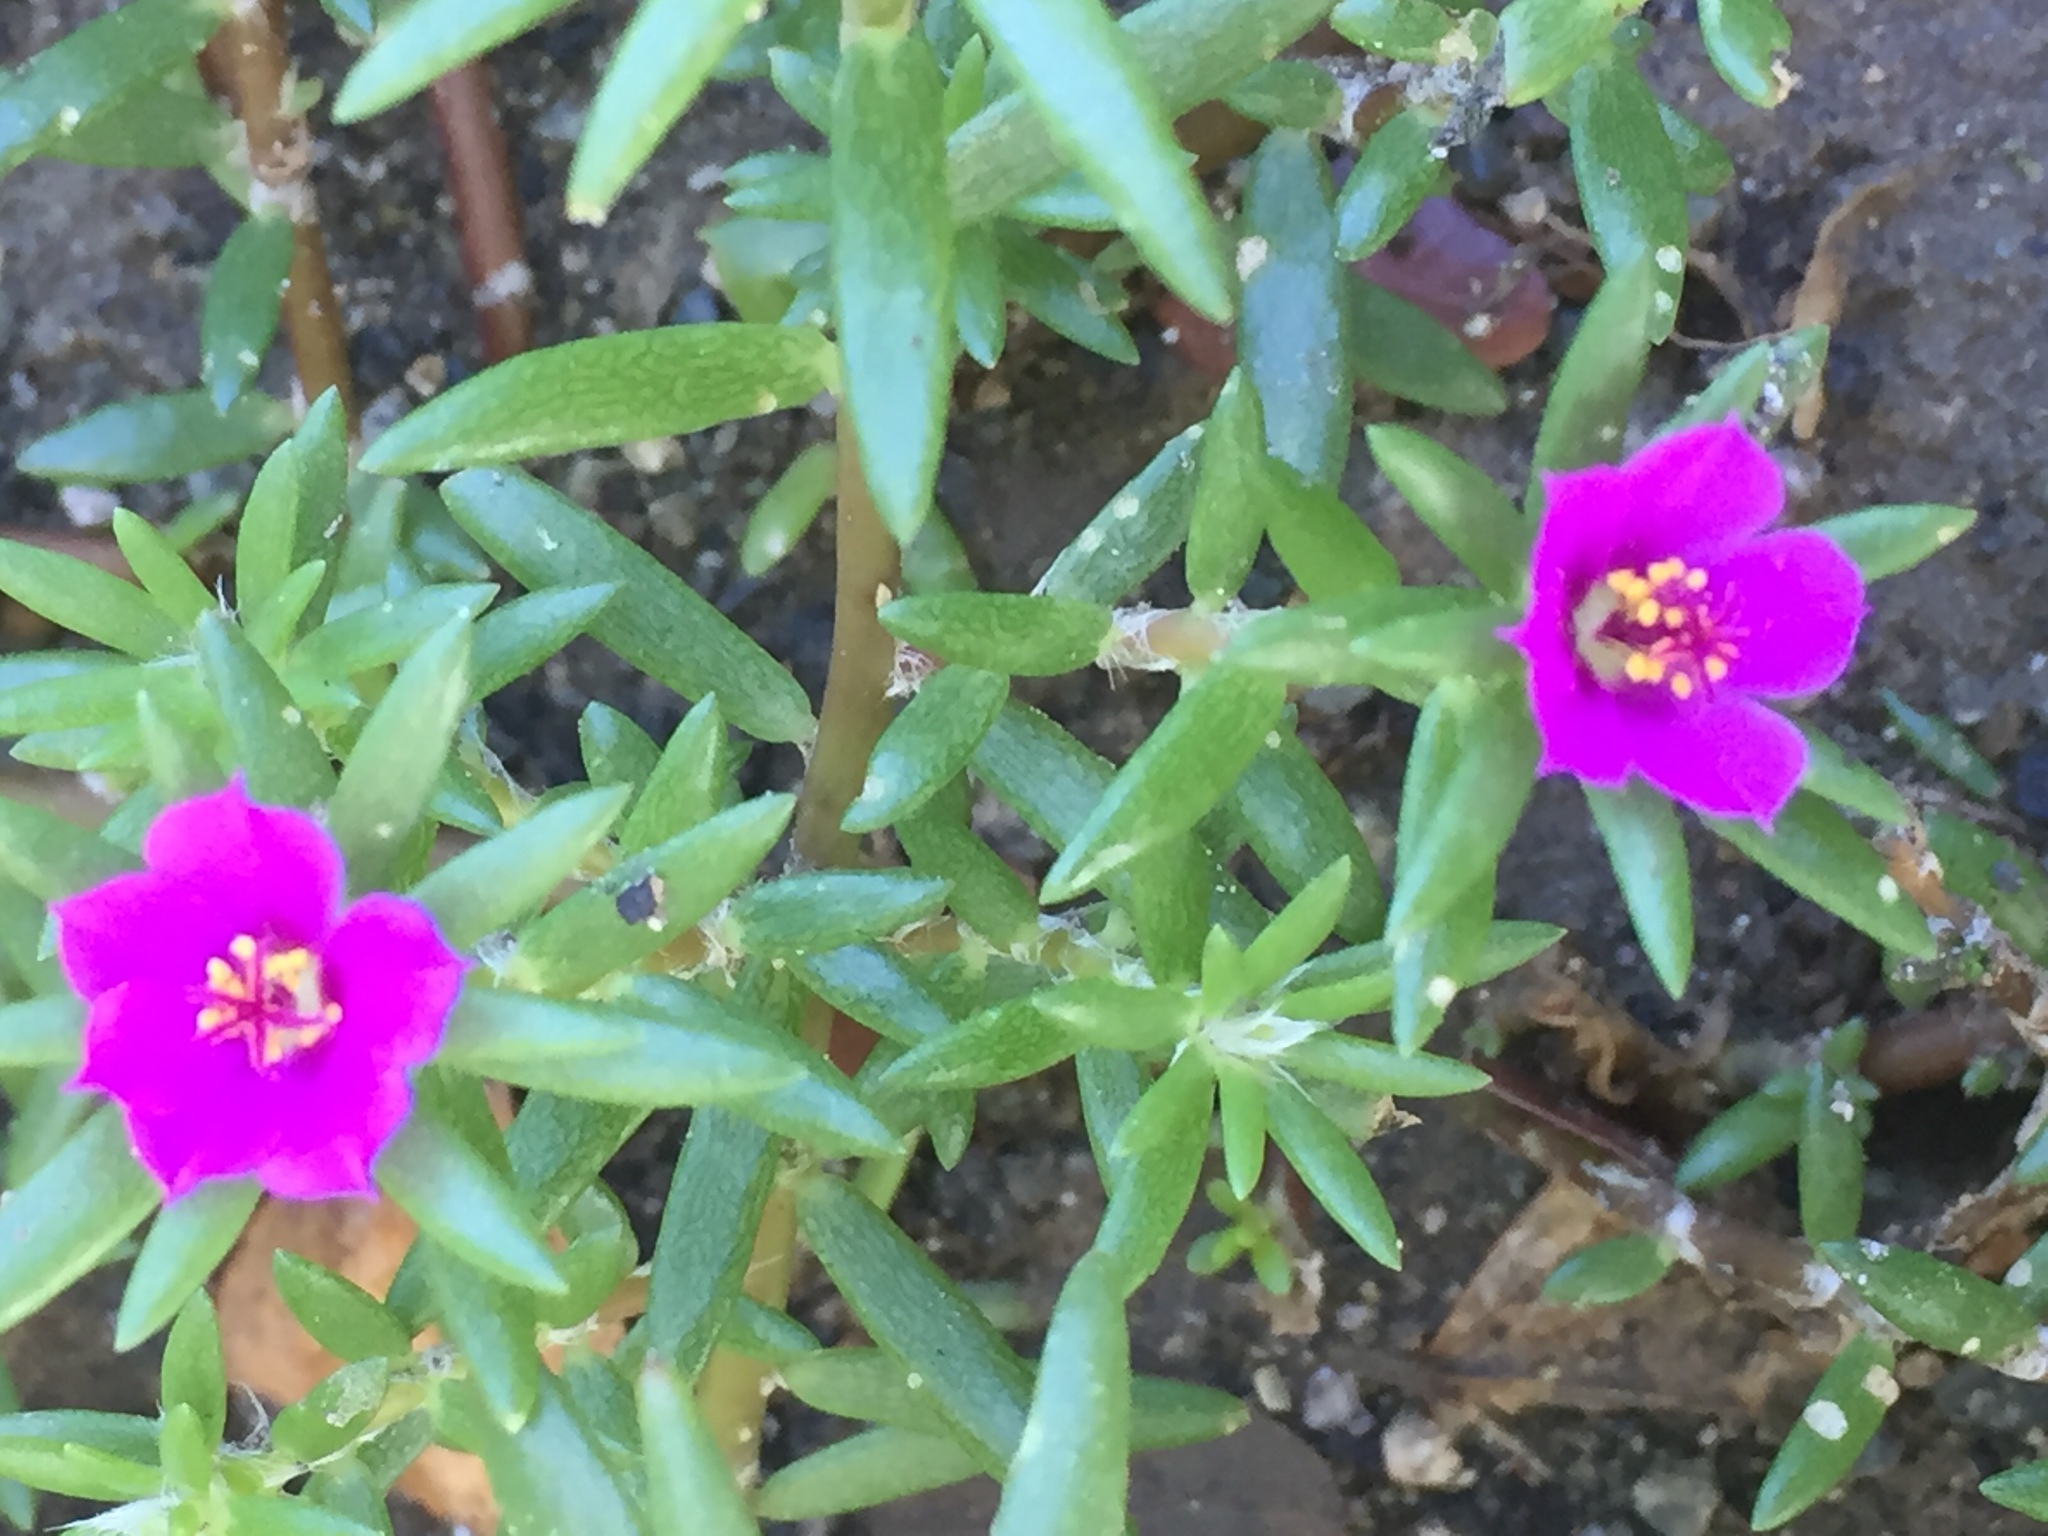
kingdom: Plantae
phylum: Tracheophyta
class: Magnoliopsida
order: Caryophyllales
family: Portulacaceae
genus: Portulaca
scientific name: Portulaca pilosa
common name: Kiss me quick
